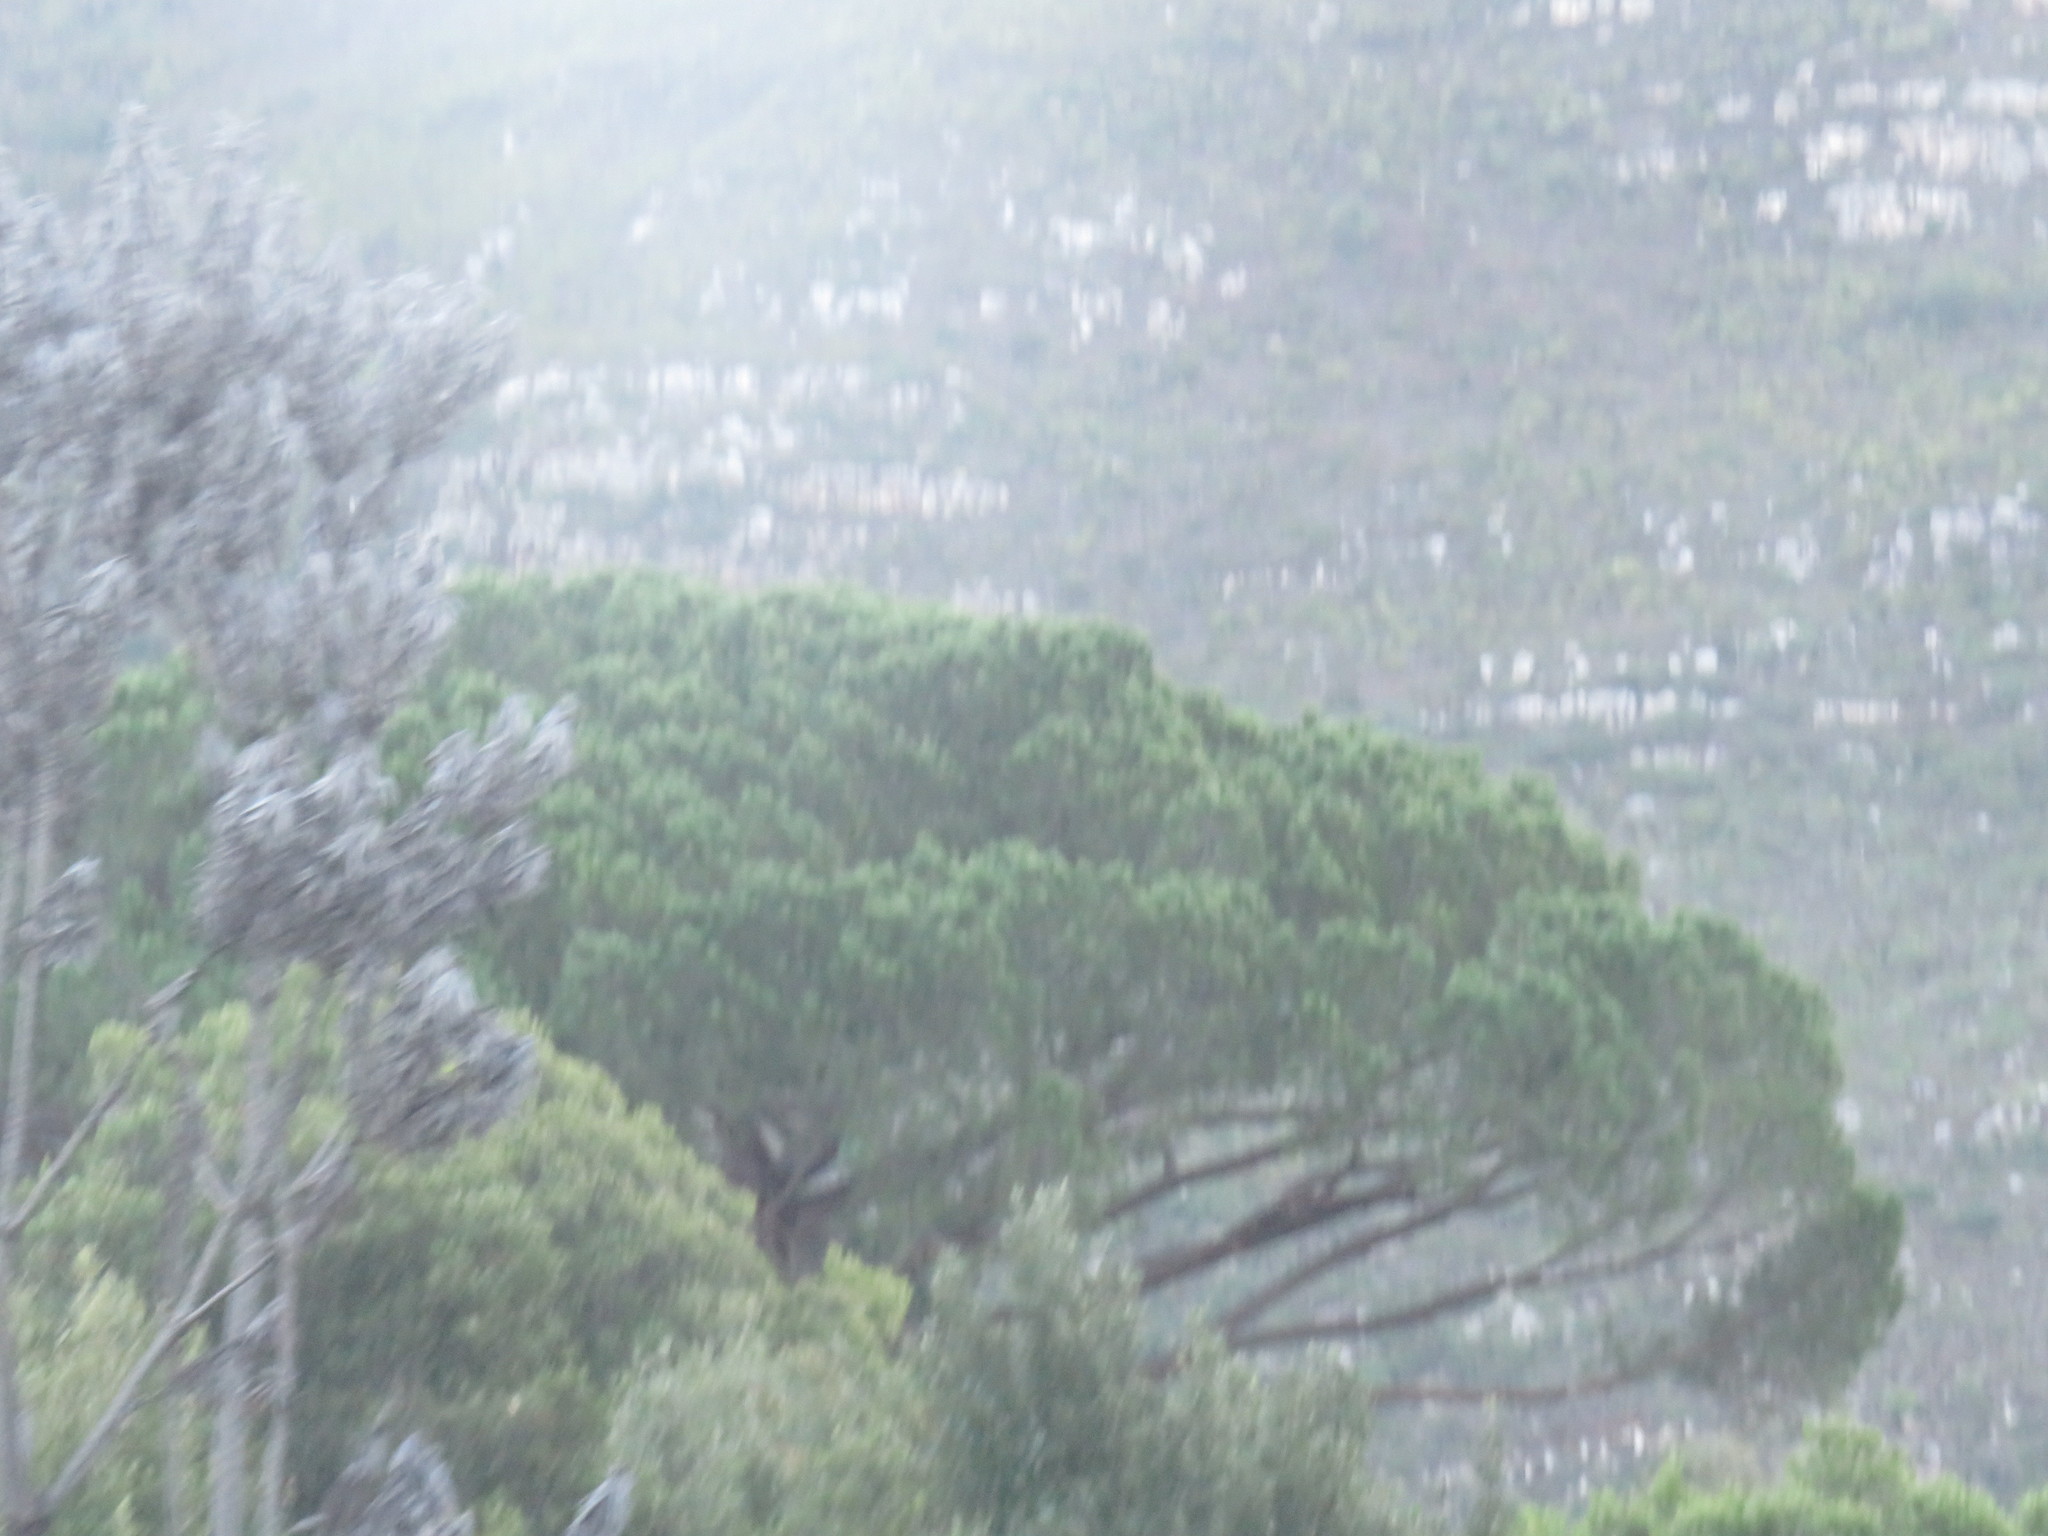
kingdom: Plantae
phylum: Tracheophyta
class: Pinopsida
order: Pinales
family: Pinaceae
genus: Pinus
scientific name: Pinus pinea
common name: Italian stone pine
